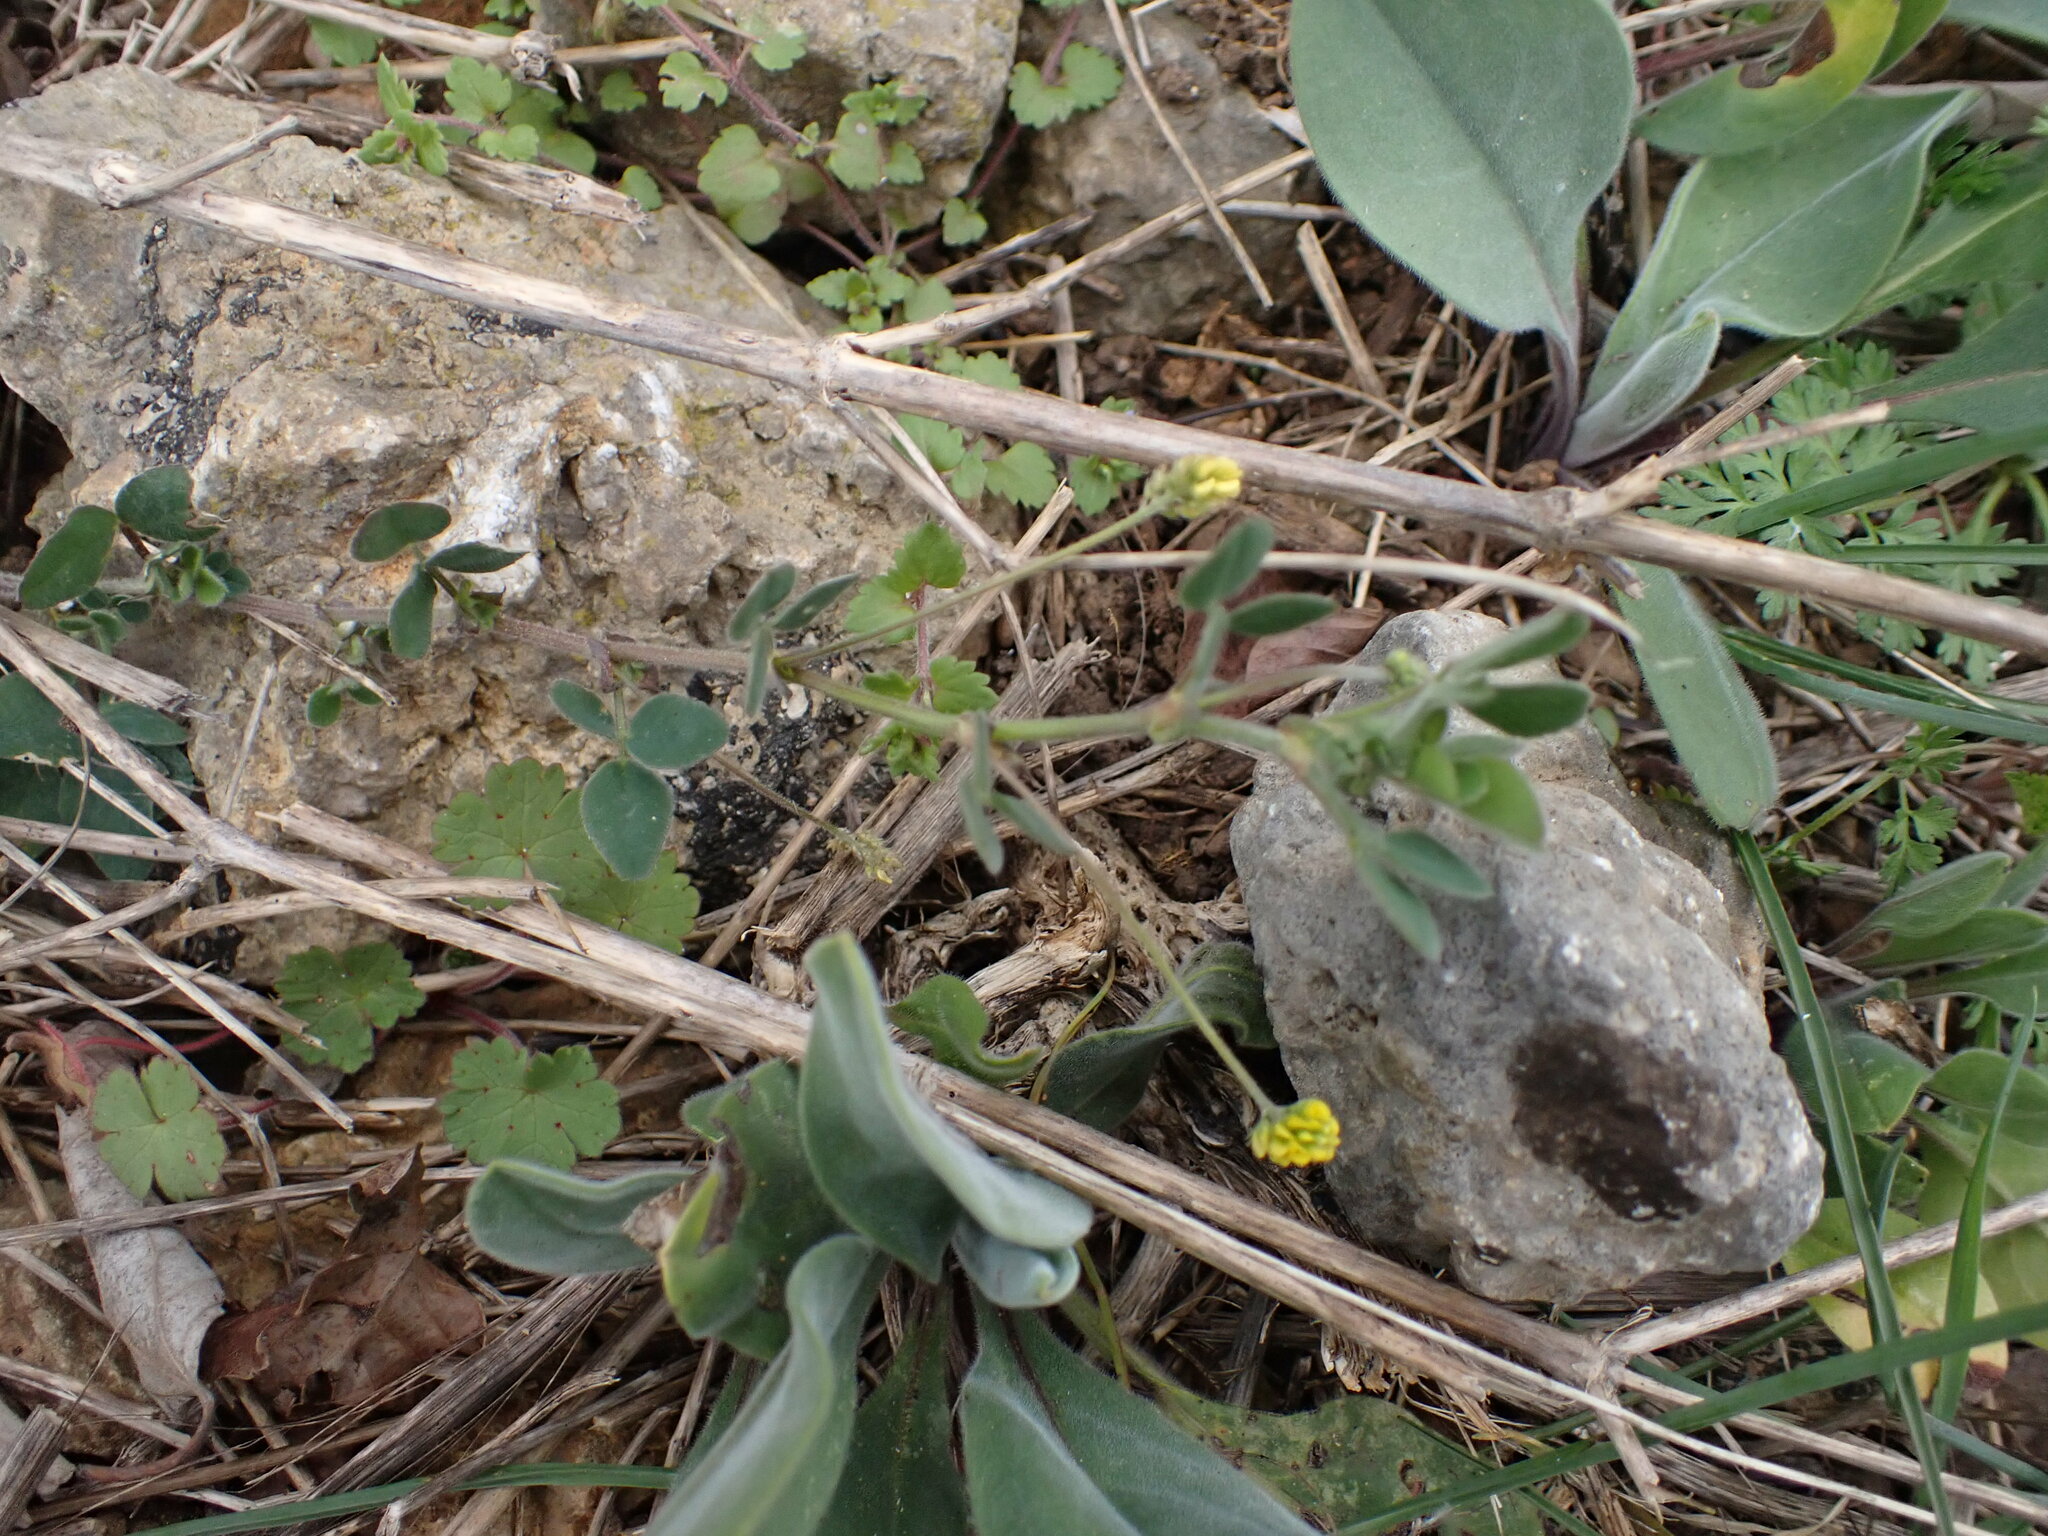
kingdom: Plantae
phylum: Tracheophyta
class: Magnoliopsida
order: Fabales
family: Fabaceae
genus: Medicago
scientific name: Medicago lupulina
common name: Black medick
